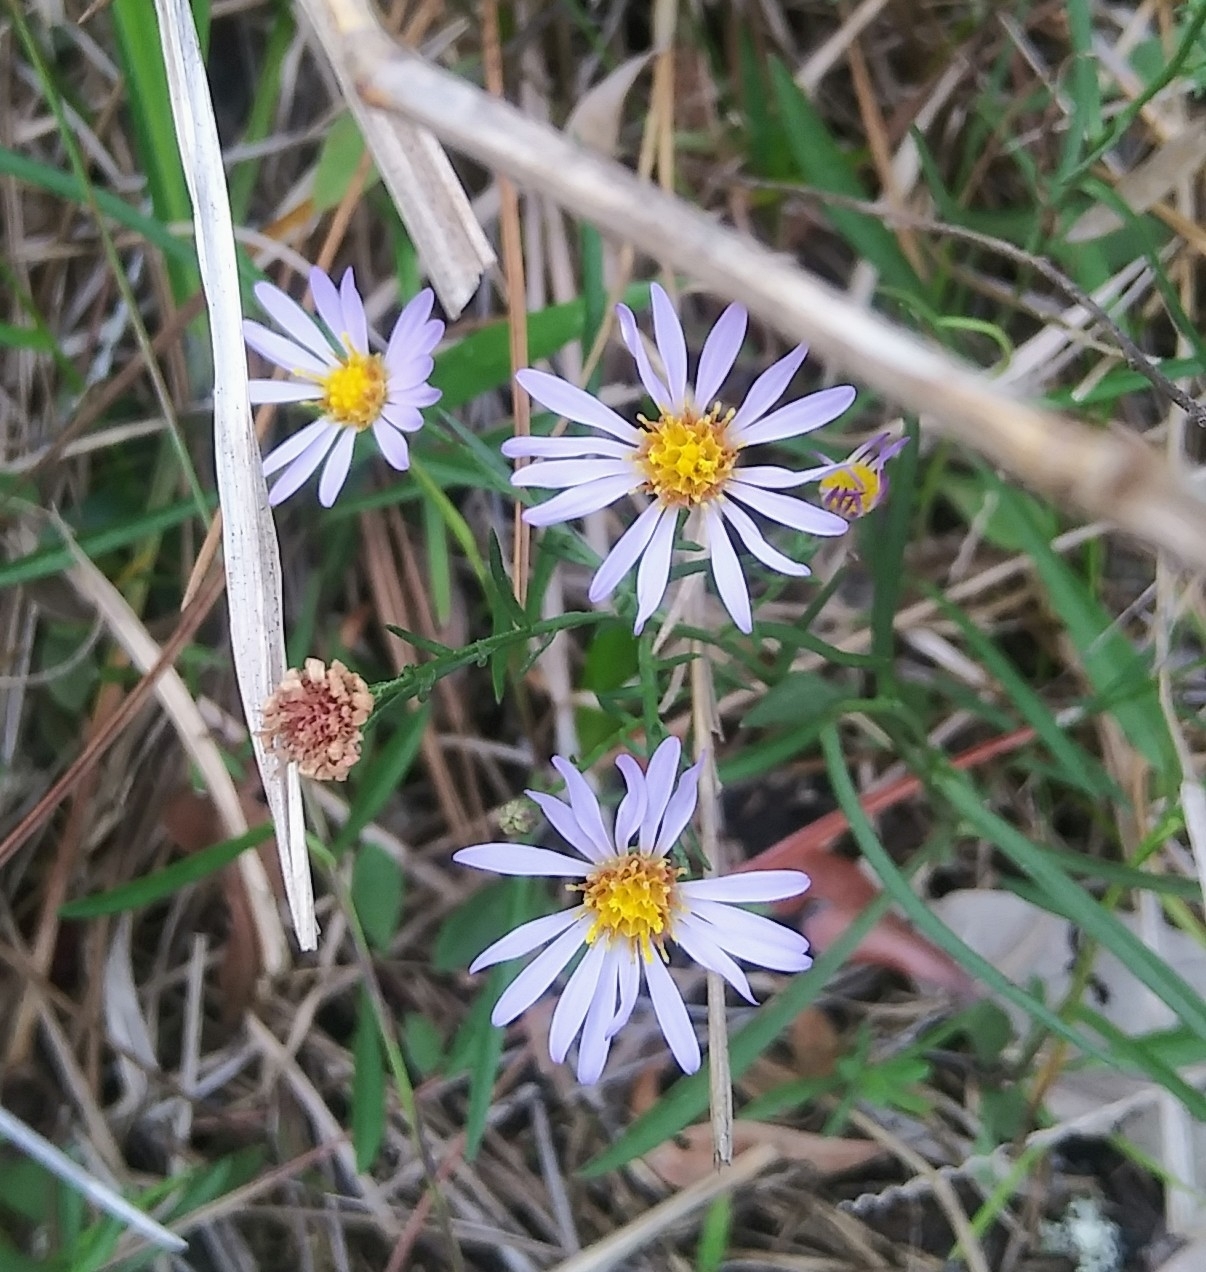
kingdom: Plantae
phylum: Tracheophyta
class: Magnoliopsida
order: Asterales
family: Asteraceae
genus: Symphyotrichum
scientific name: Symphyotrichum simmondsii
